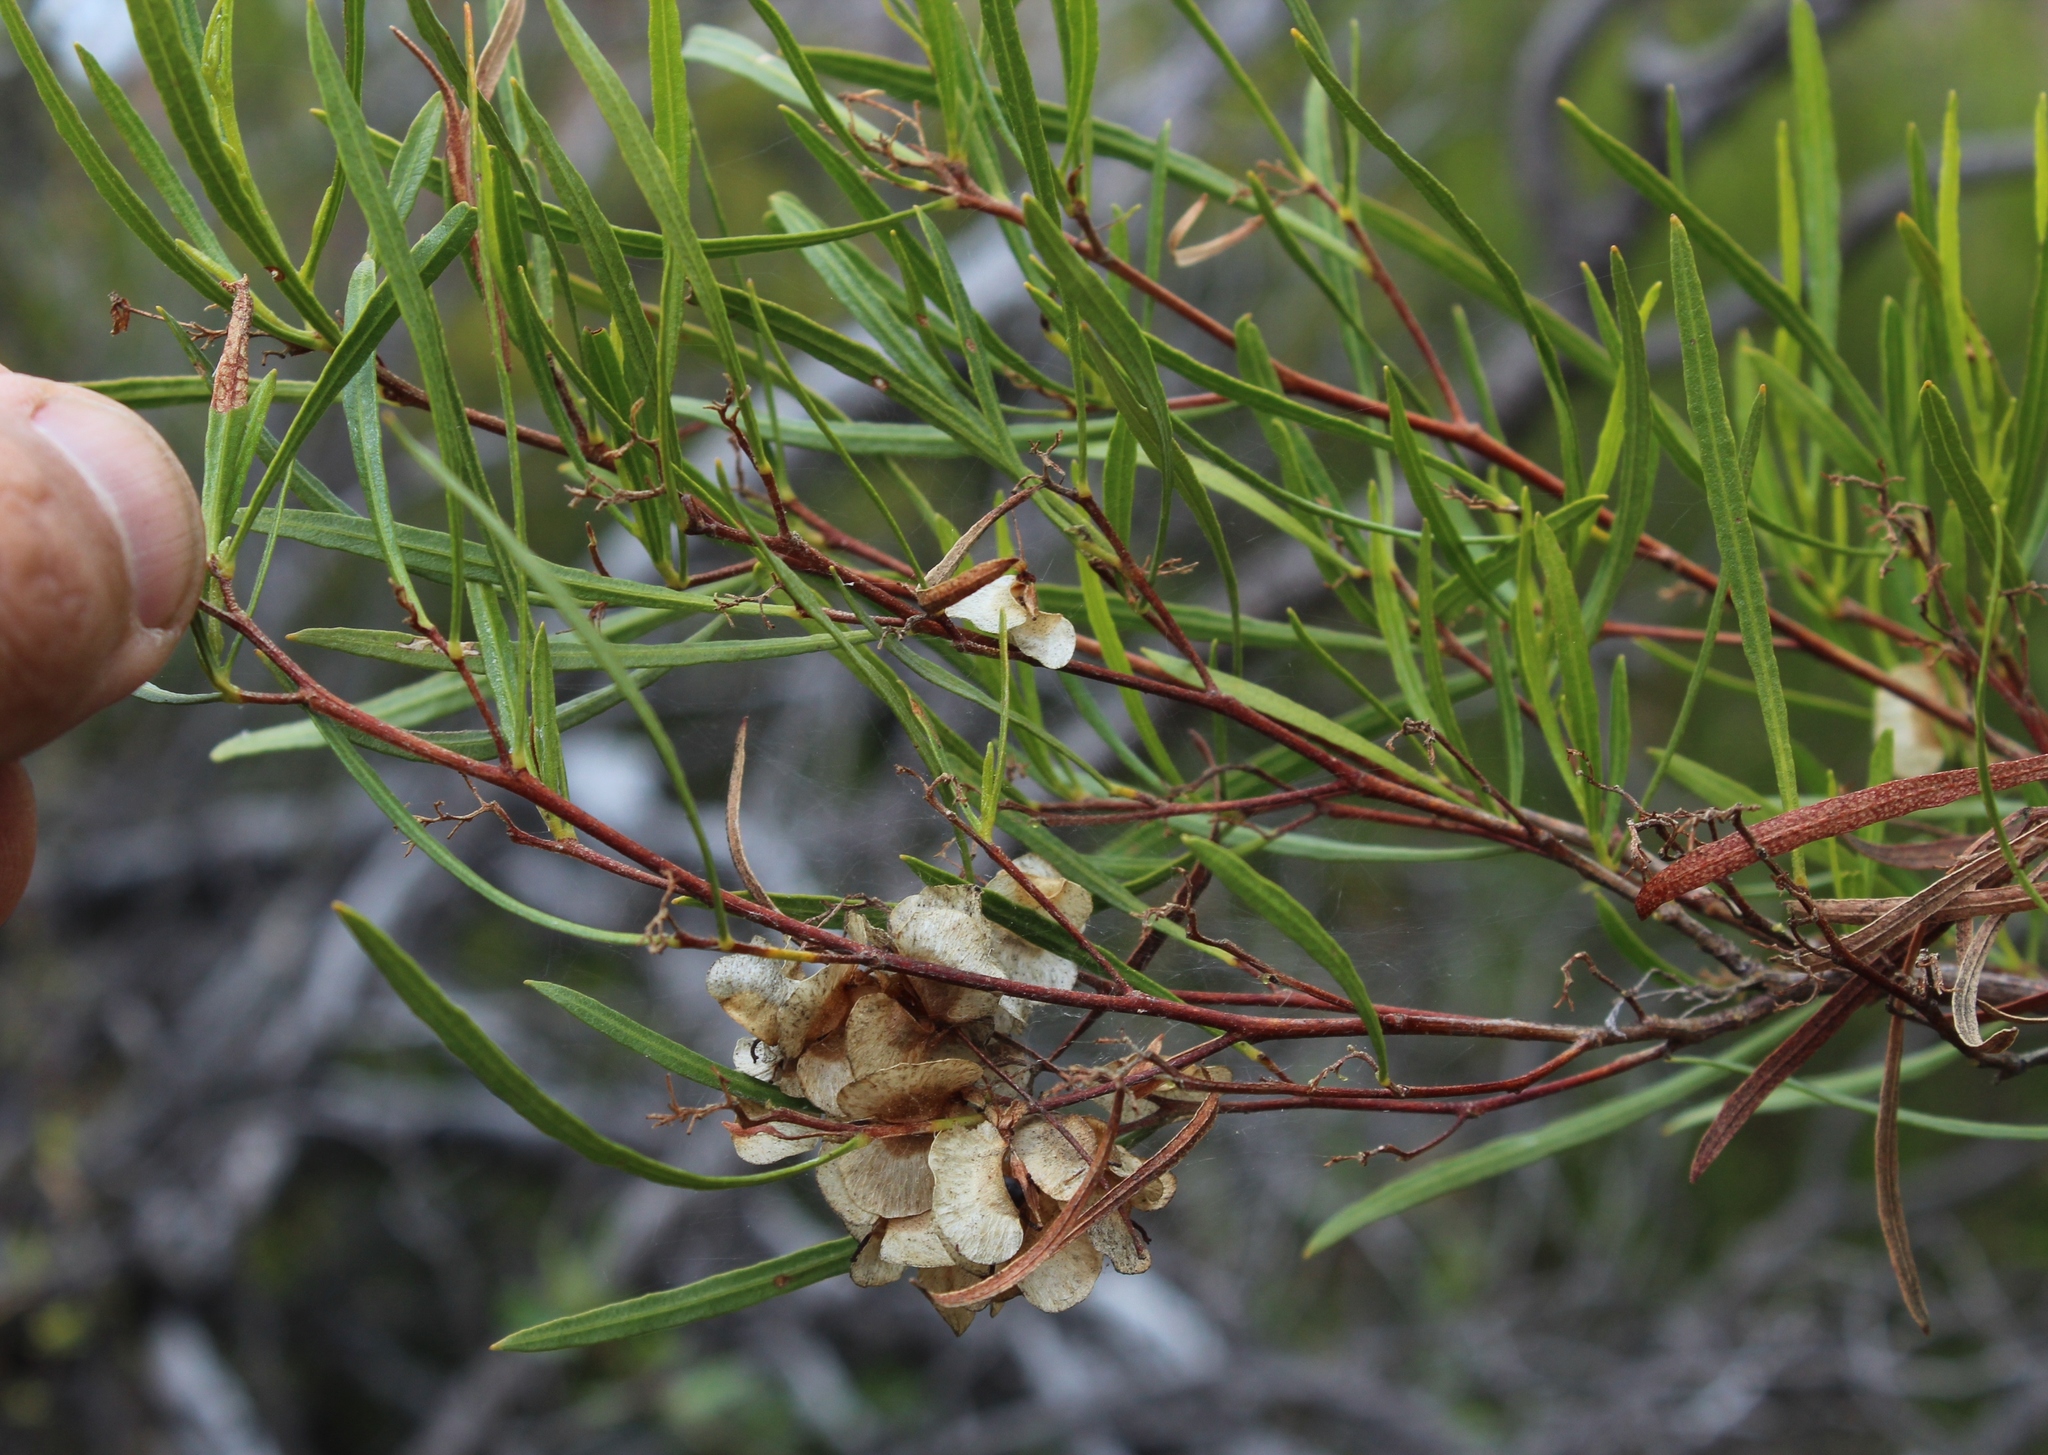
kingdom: Plantae
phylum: Tracheophyta
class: Magnoliopsida
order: Sapindales
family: Sapindaceae
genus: Dodonaea
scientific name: Dodonaea viscosa
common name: Hopbush
